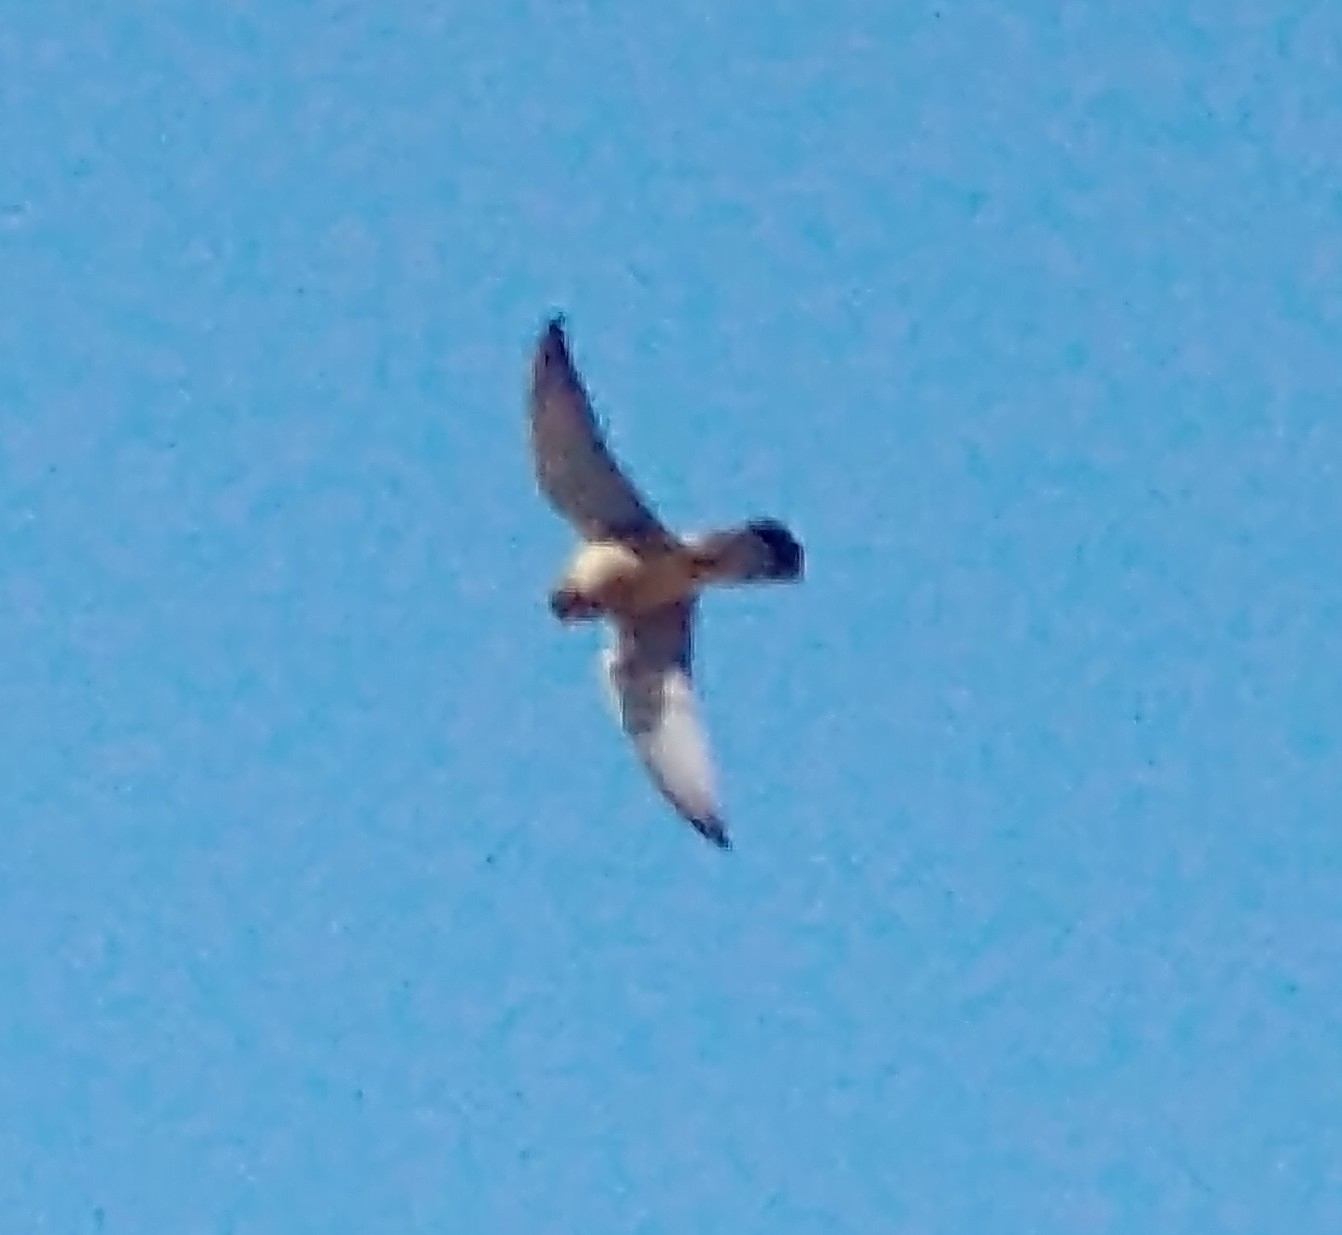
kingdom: Animalia
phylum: Chordata
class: Aves
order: Falconiformes
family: Falconidae
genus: Falco
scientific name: Falco tinnunculus
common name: Common kestrel
